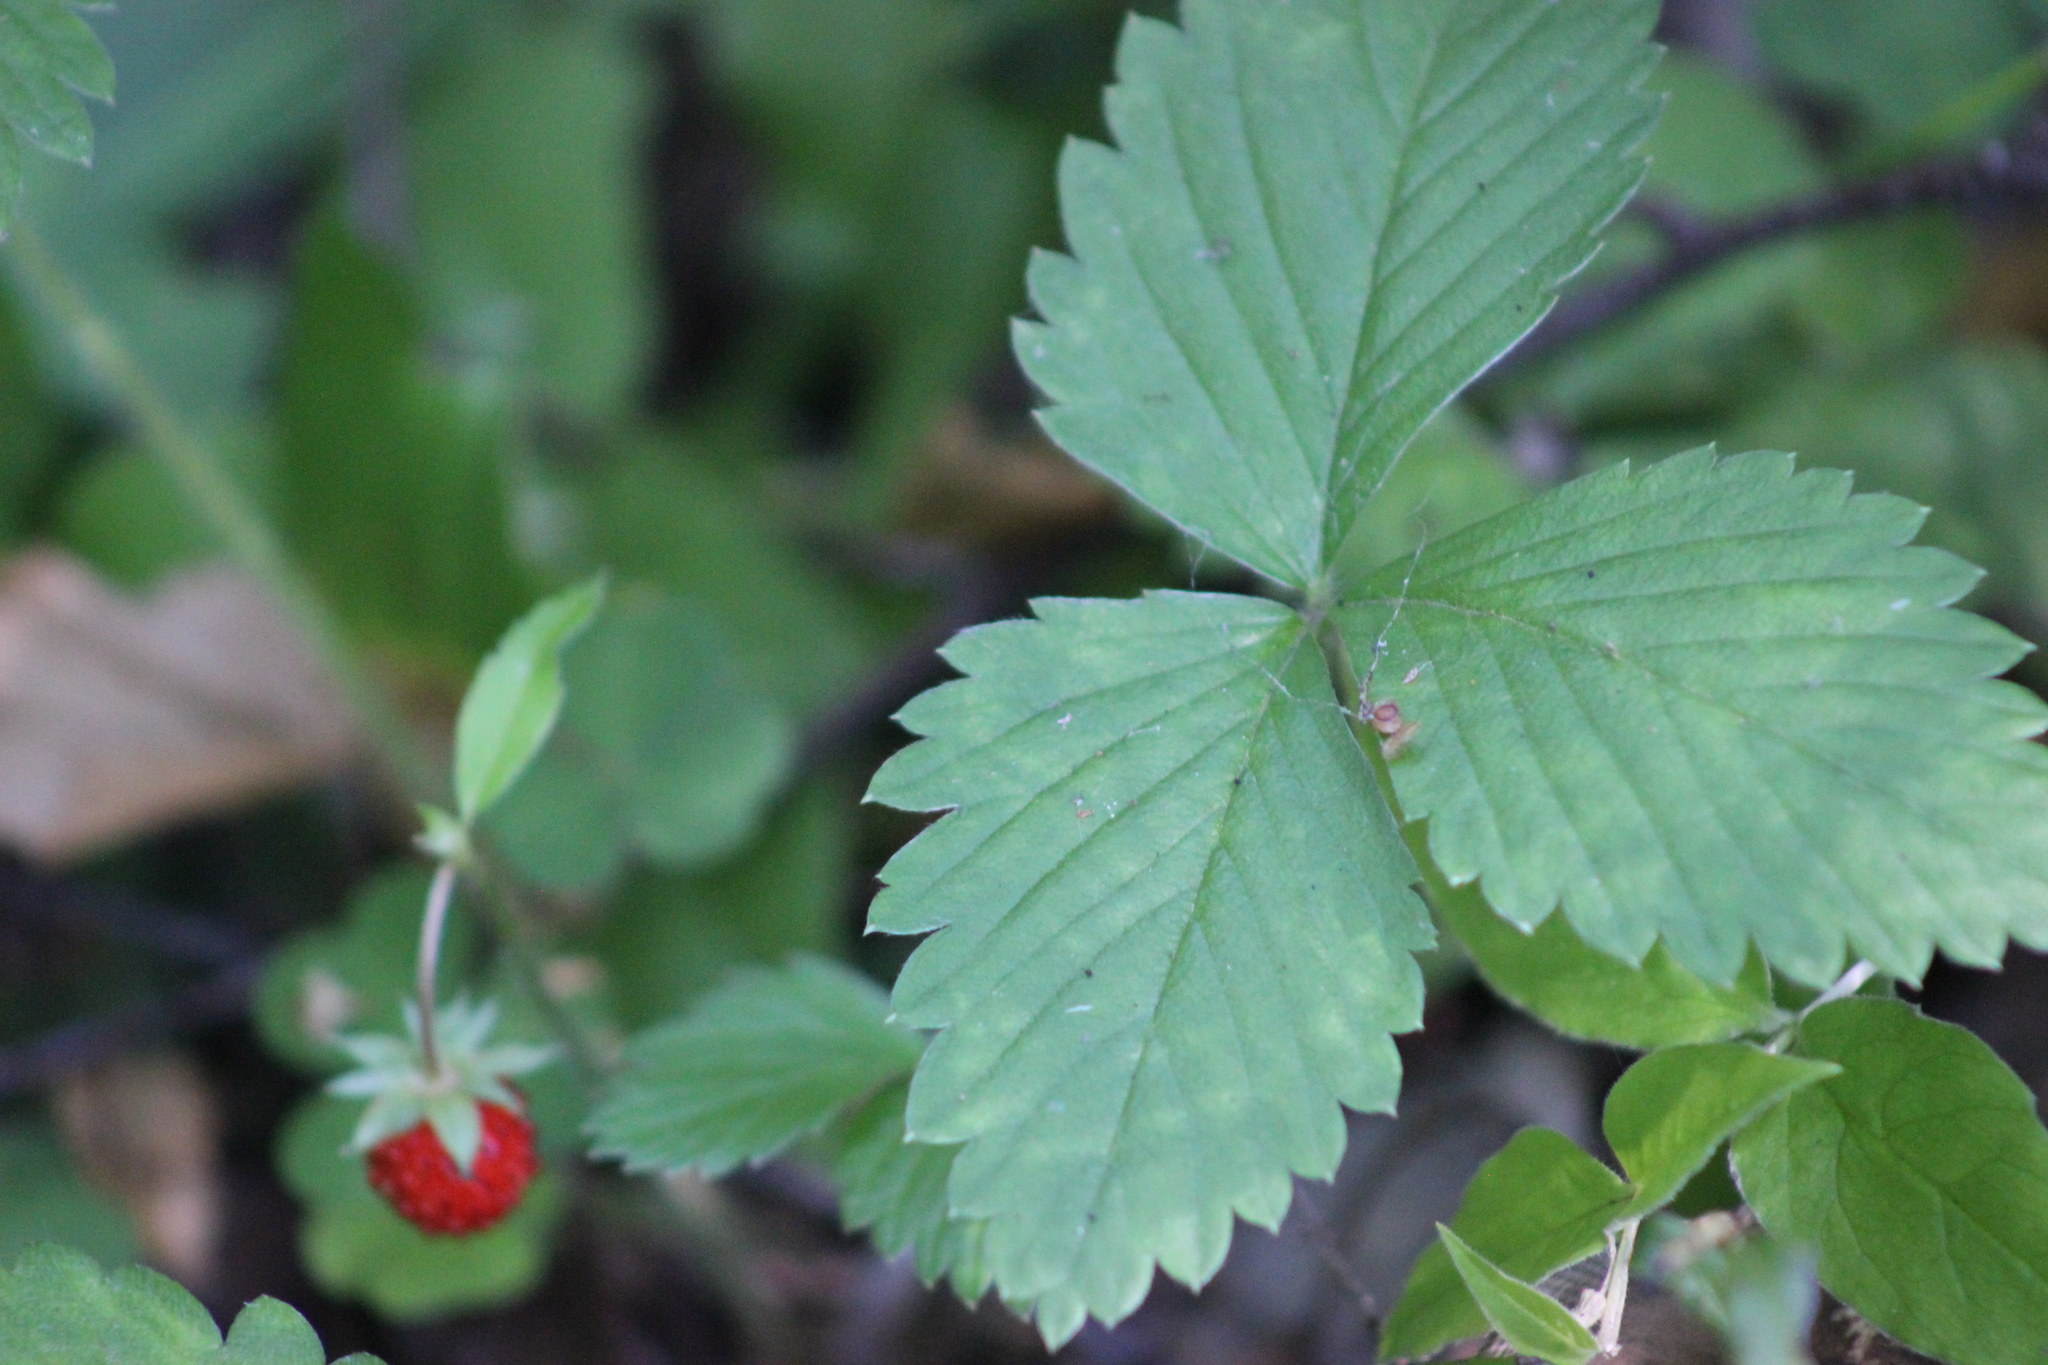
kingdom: Plantae
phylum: Tracheophyta
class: Magnoliopsida
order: Rosales
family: Rosaceae
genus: Fragaria
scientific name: Fragaria vesca
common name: Wild strawberry
